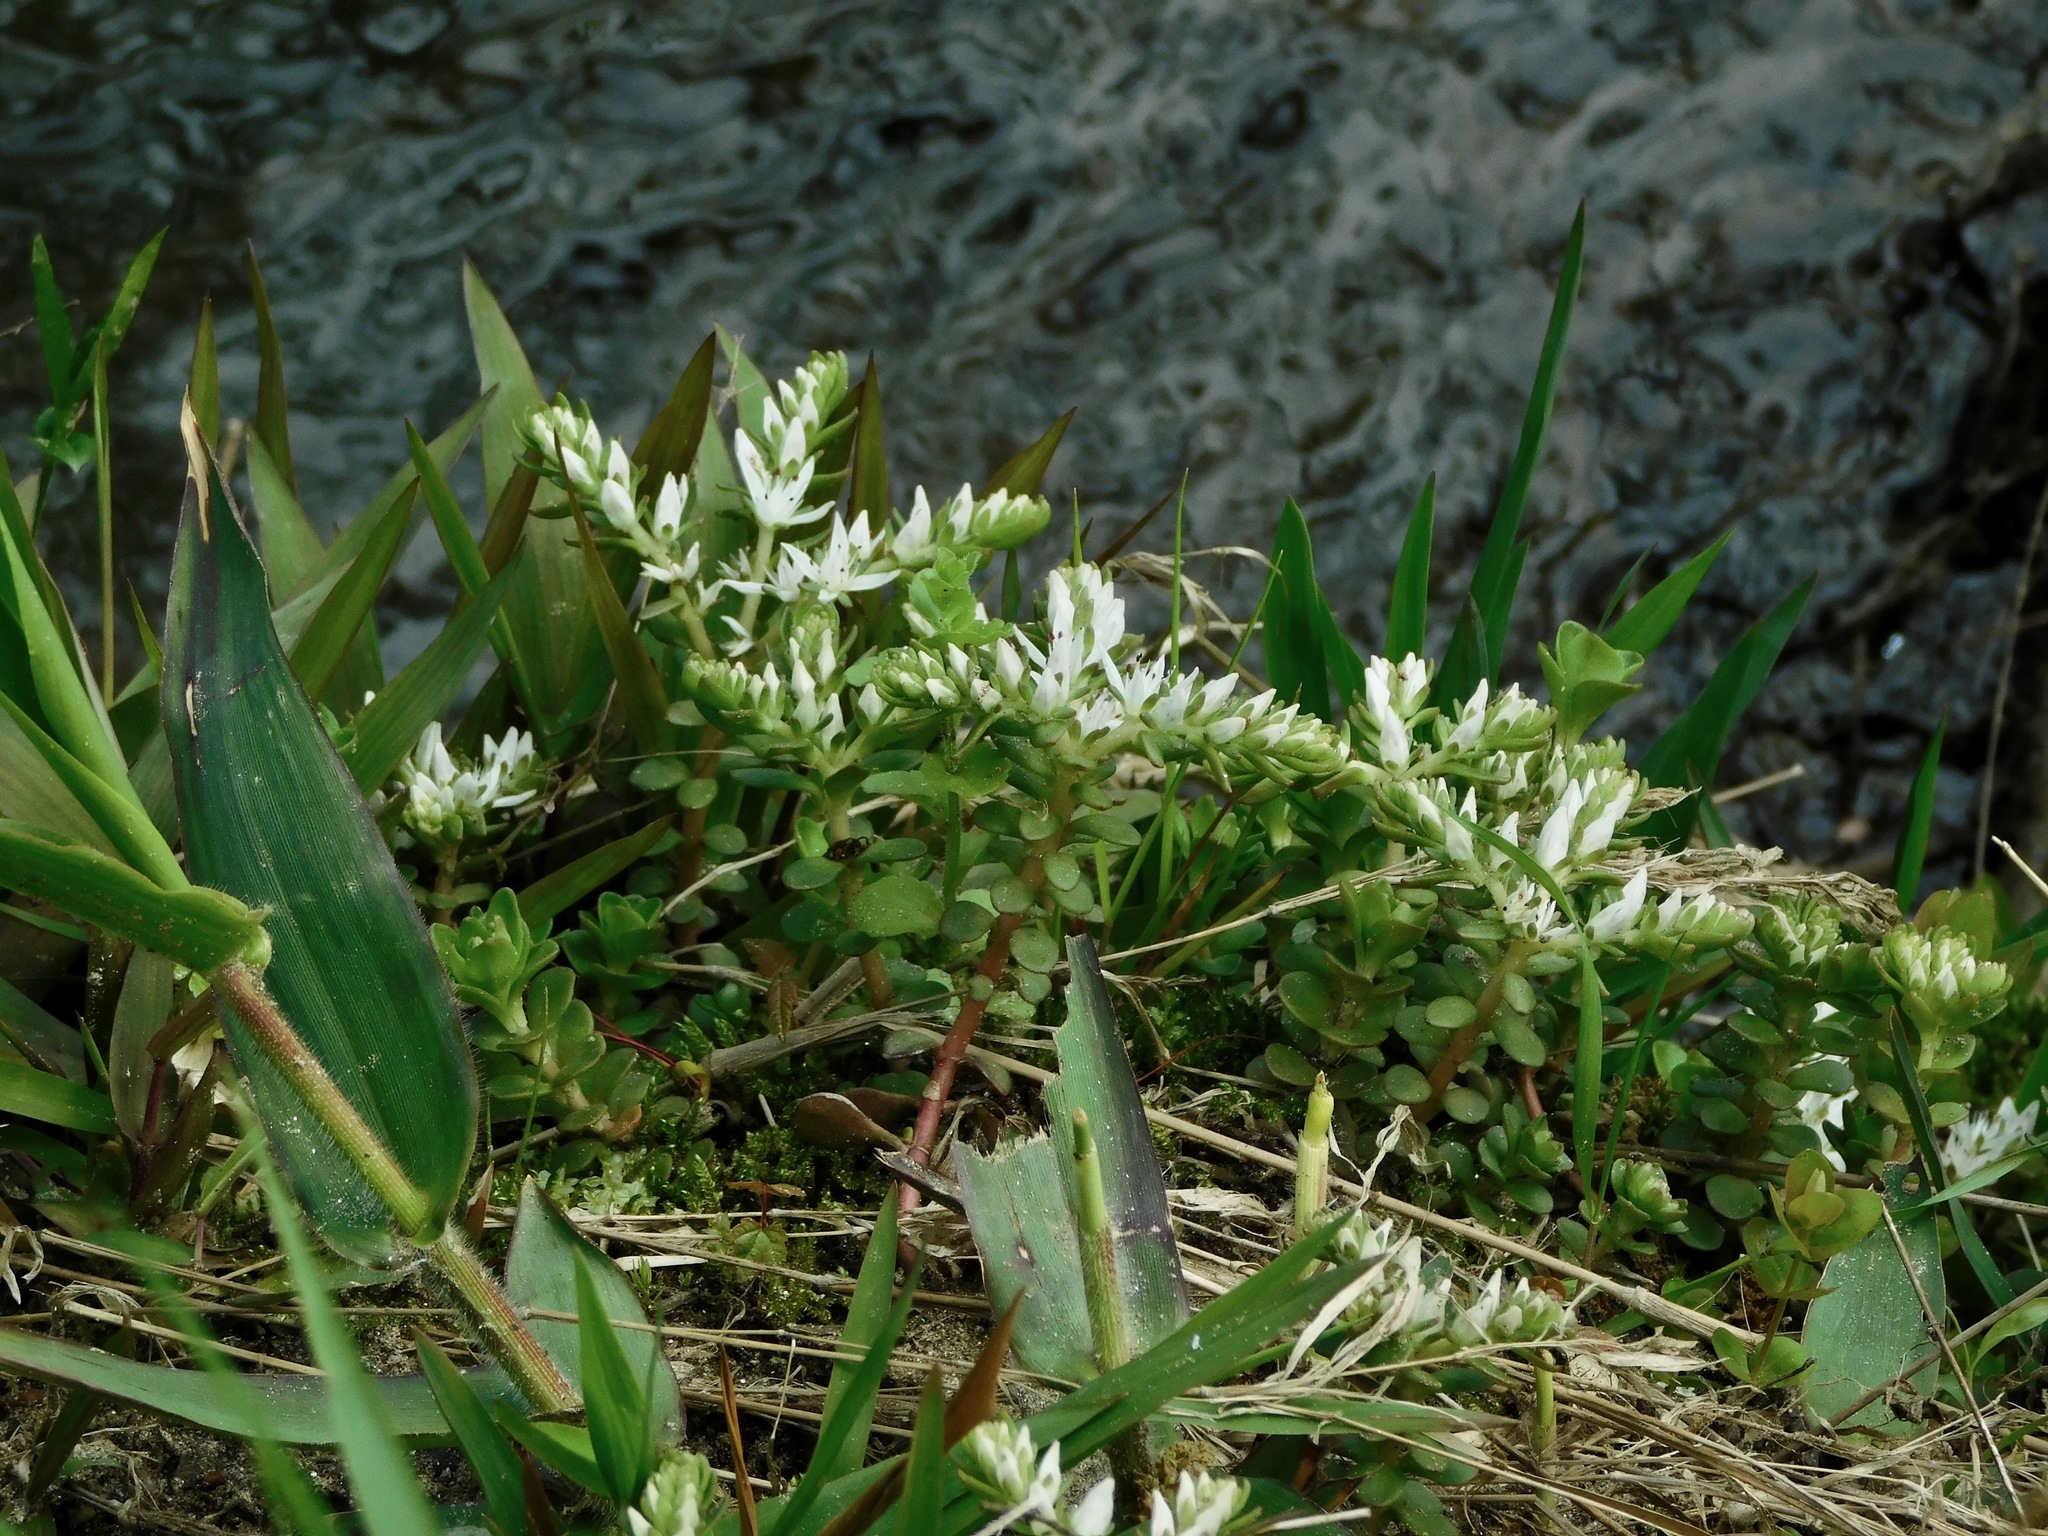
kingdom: Plantae
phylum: Tracheophyta
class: Magnoliopsida
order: Saxifragales
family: Crassulaceae
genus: Sedum
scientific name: Sedum ternatum
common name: Wild stonecrop
